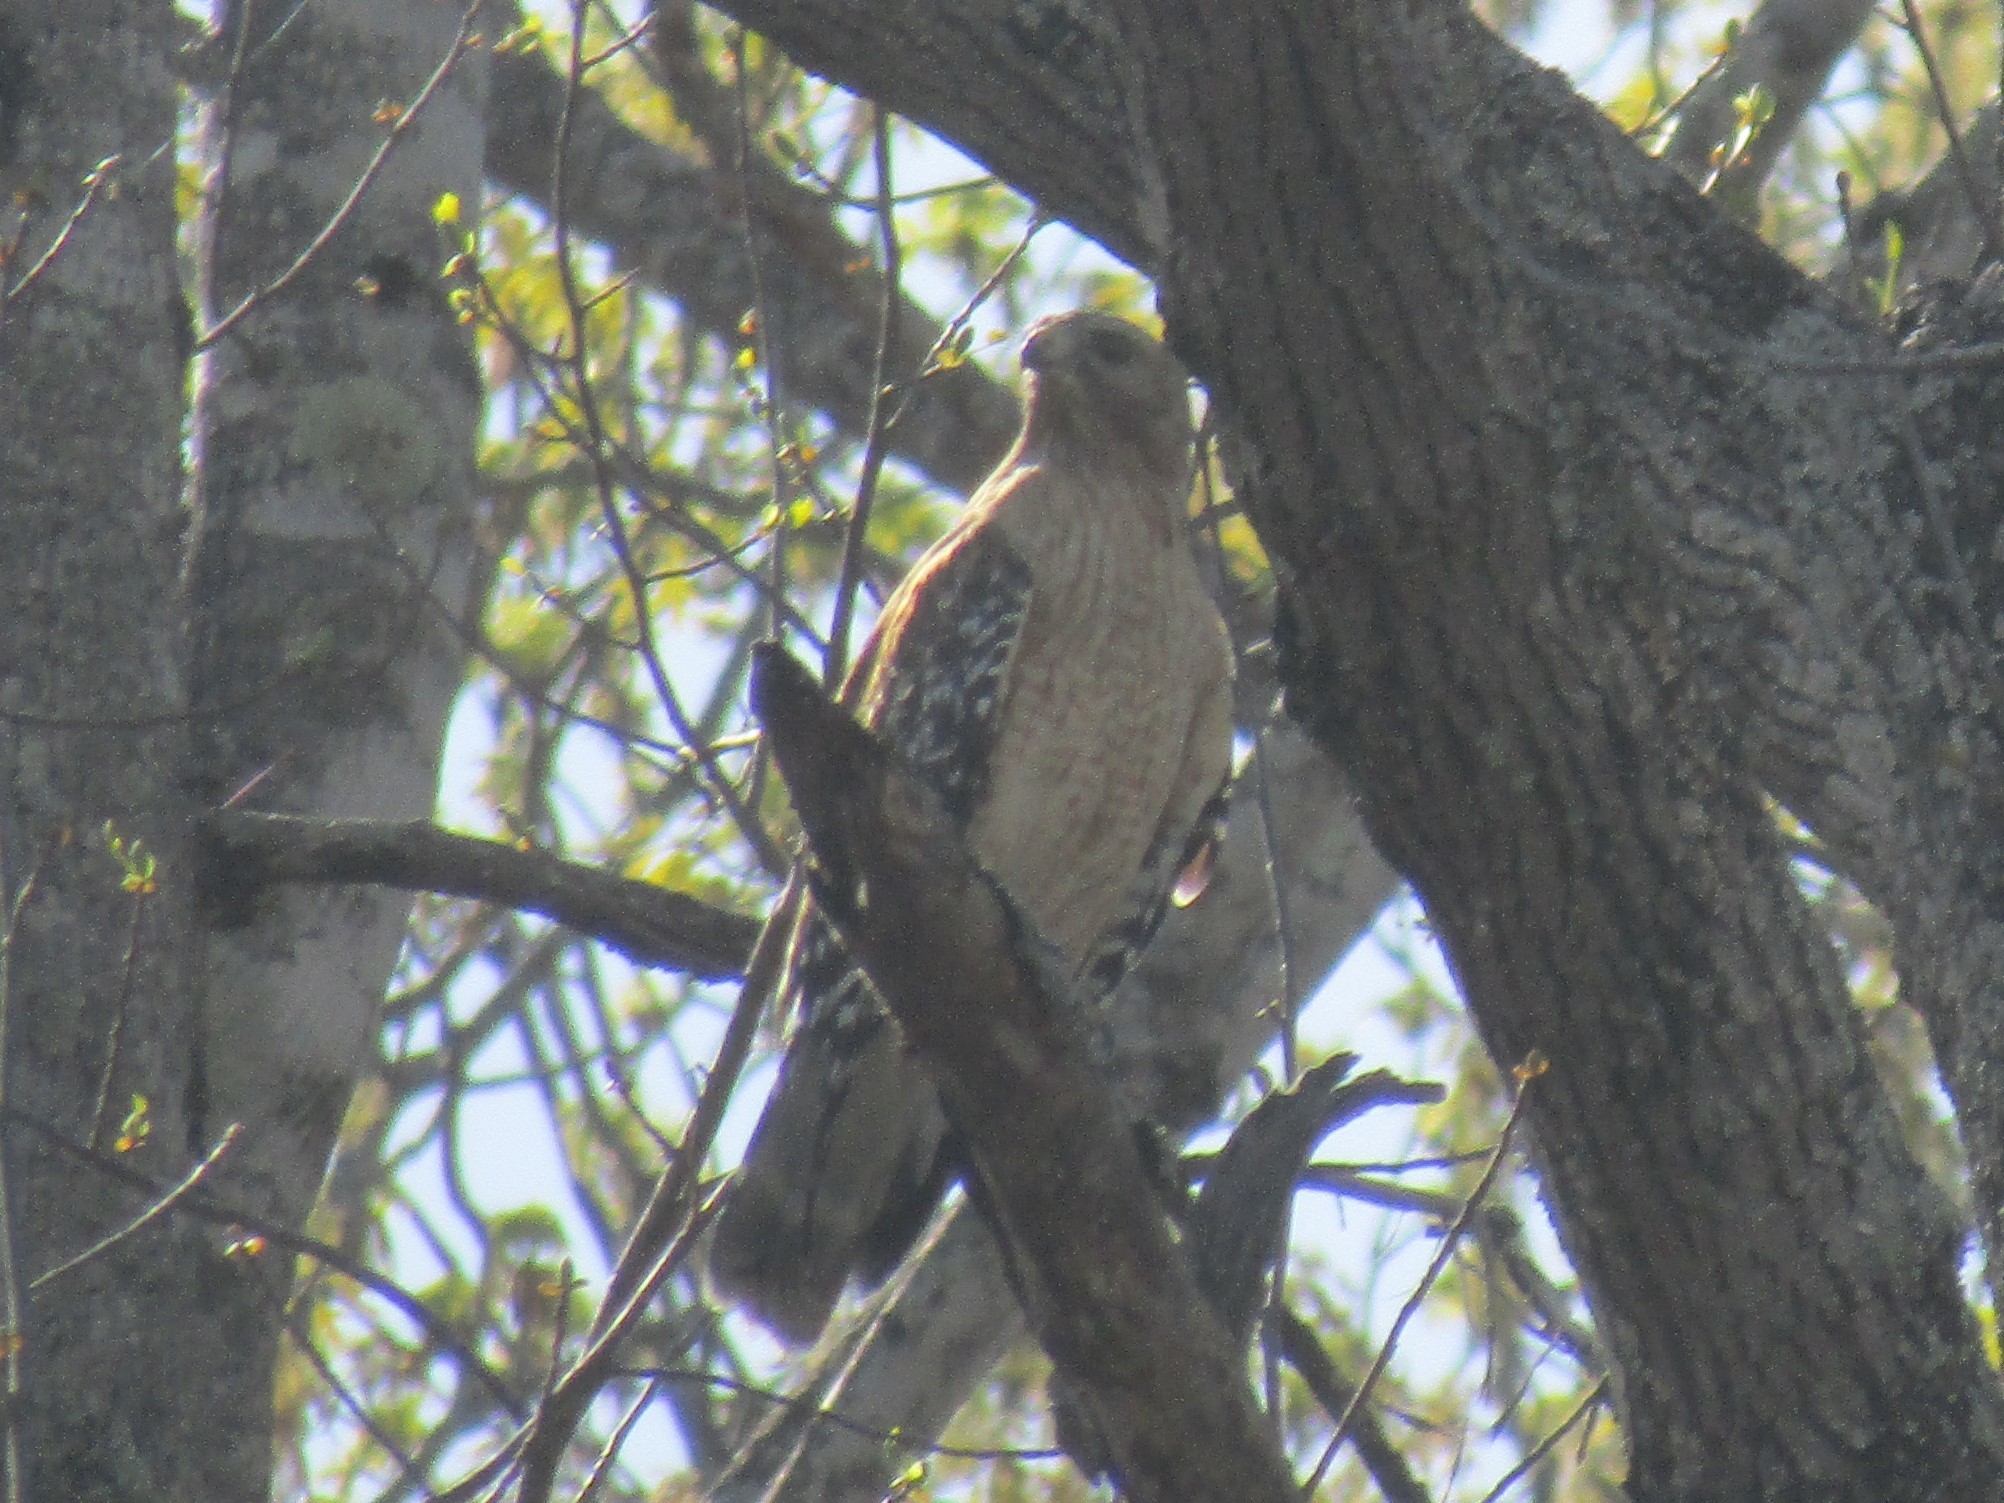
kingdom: Animalia
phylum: Chordata
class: Aves
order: Accipitriformes
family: Accipitridae
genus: Buteo
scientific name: Buteo lineatus
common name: Red-shouldered hawk
